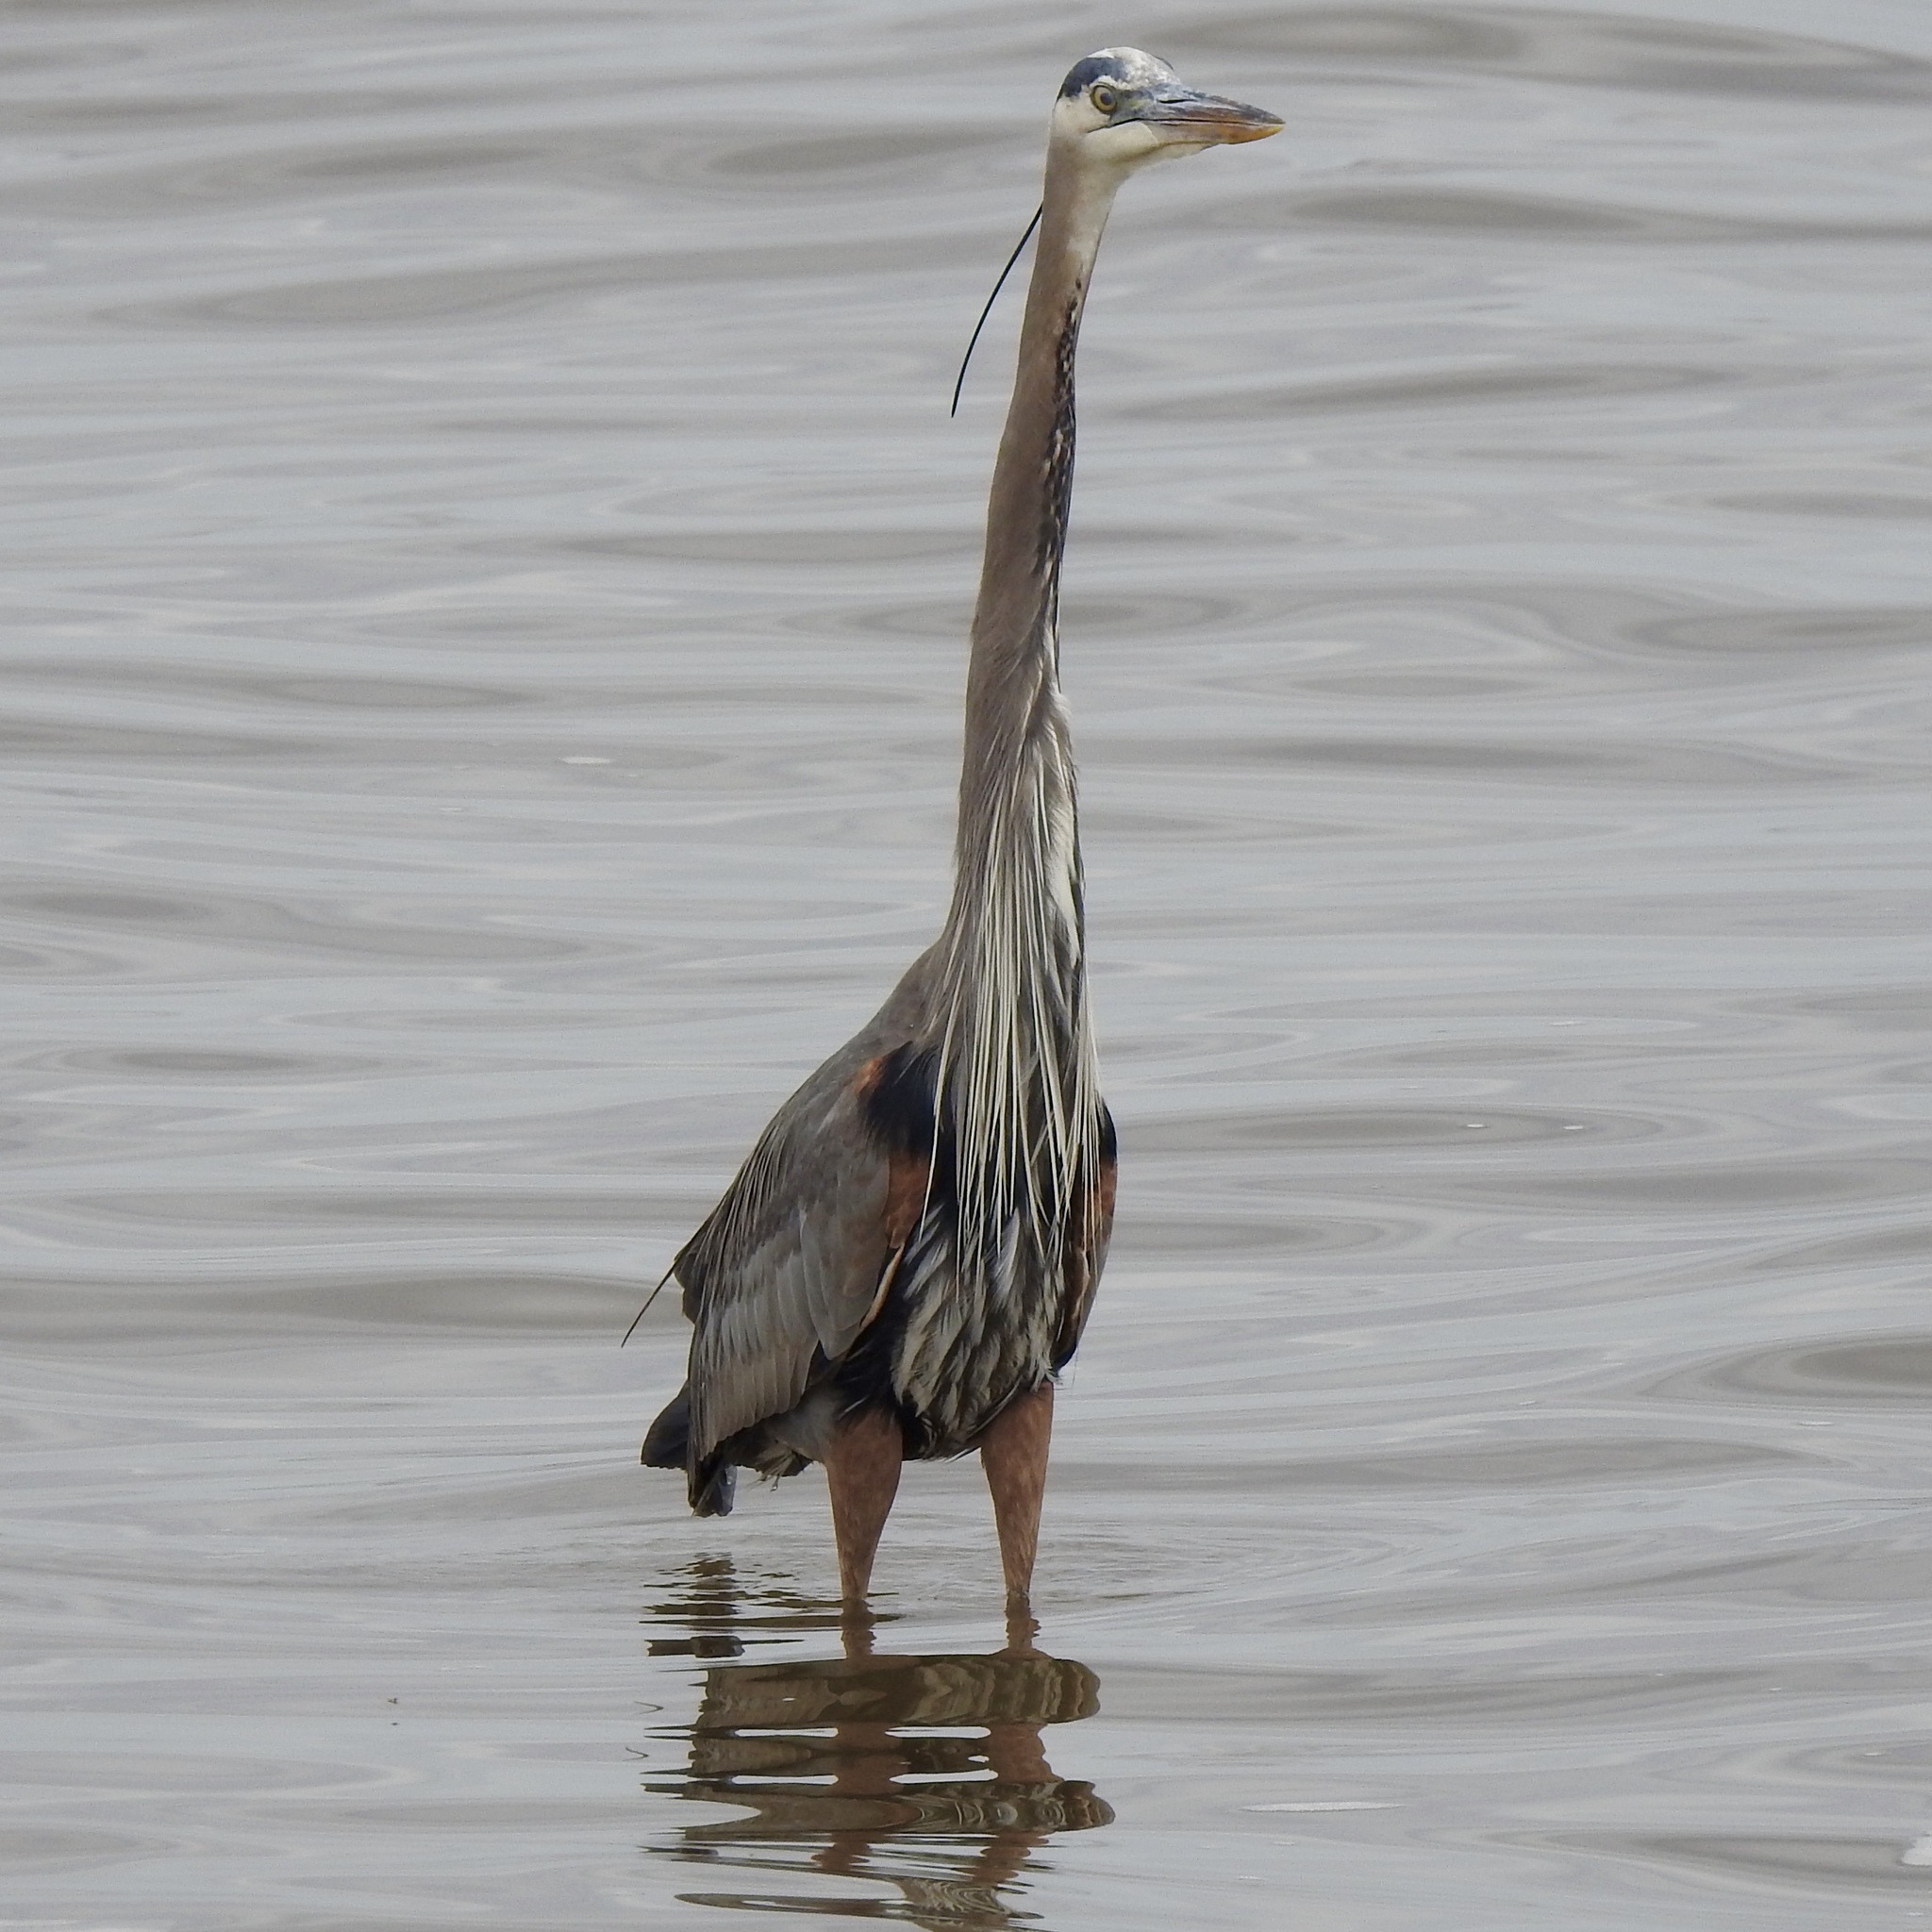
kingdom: Animalia
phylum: Chordata
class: Aves
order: Pelecaniformes
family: Ardeidae
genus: Ardea
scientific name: Ardea herodias
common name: Great blue heron
